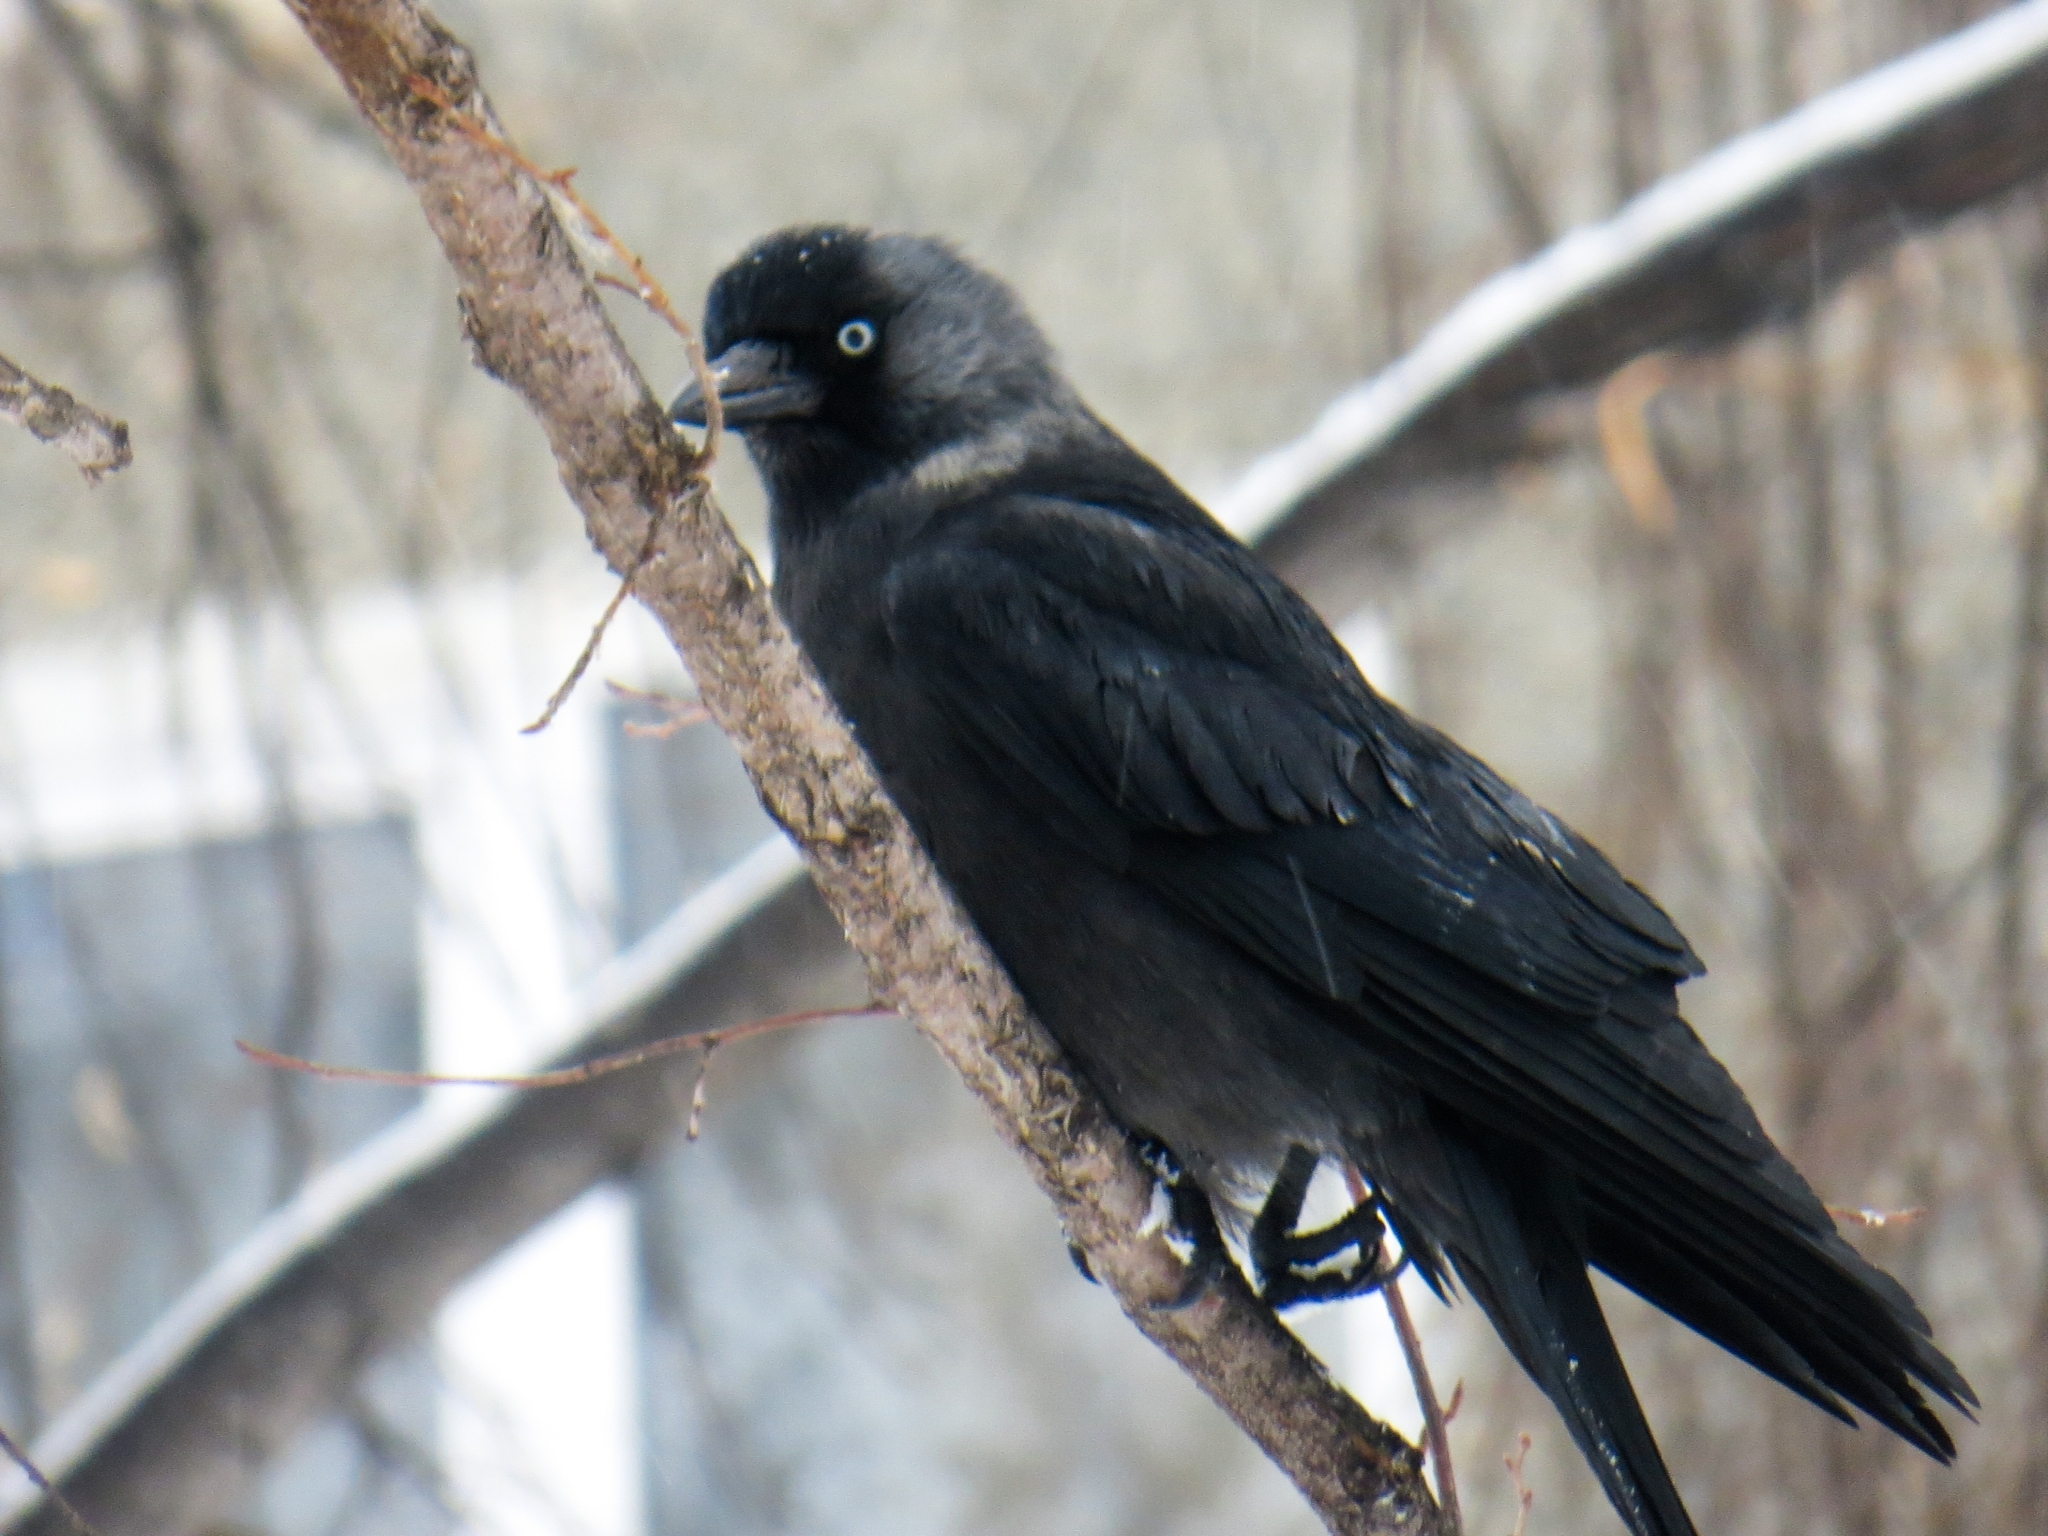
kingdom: Animalia
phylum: Chordata
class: Aves
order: Passeriformes
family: Corvidae
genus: Coloeus
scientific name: Coloeus monedula
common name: Western jackdaw
